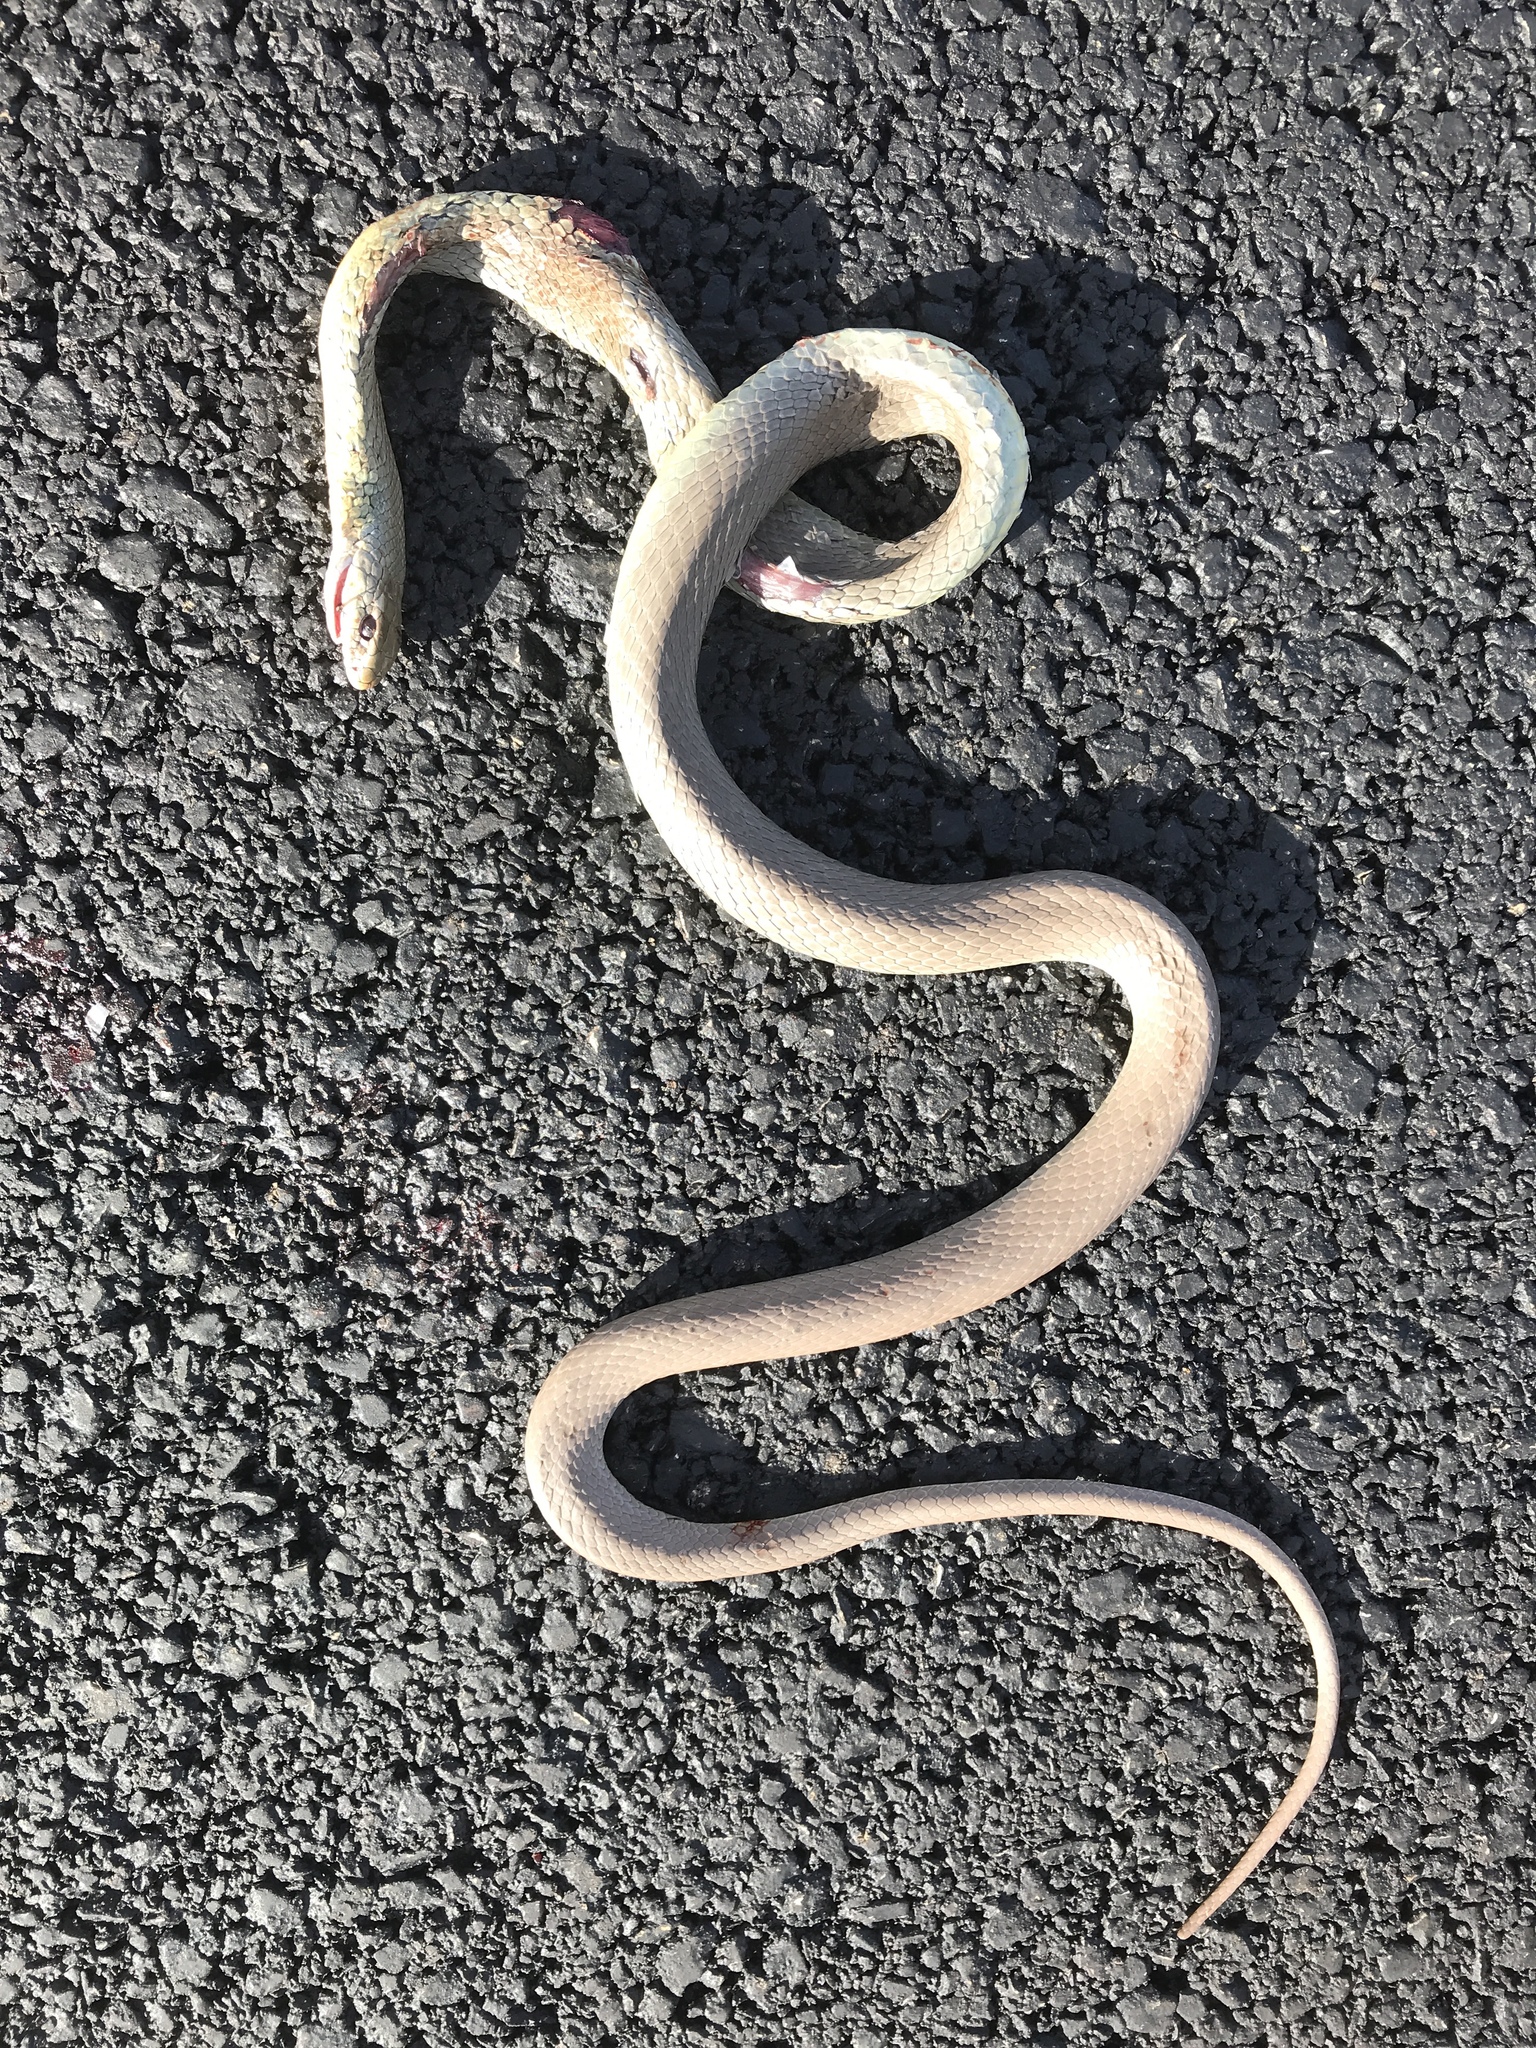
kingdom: Animalia
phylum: Chordata
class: Squamata
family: Colubridae
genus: Coluber
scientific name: Coluber constrictor
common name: Eastern racer
